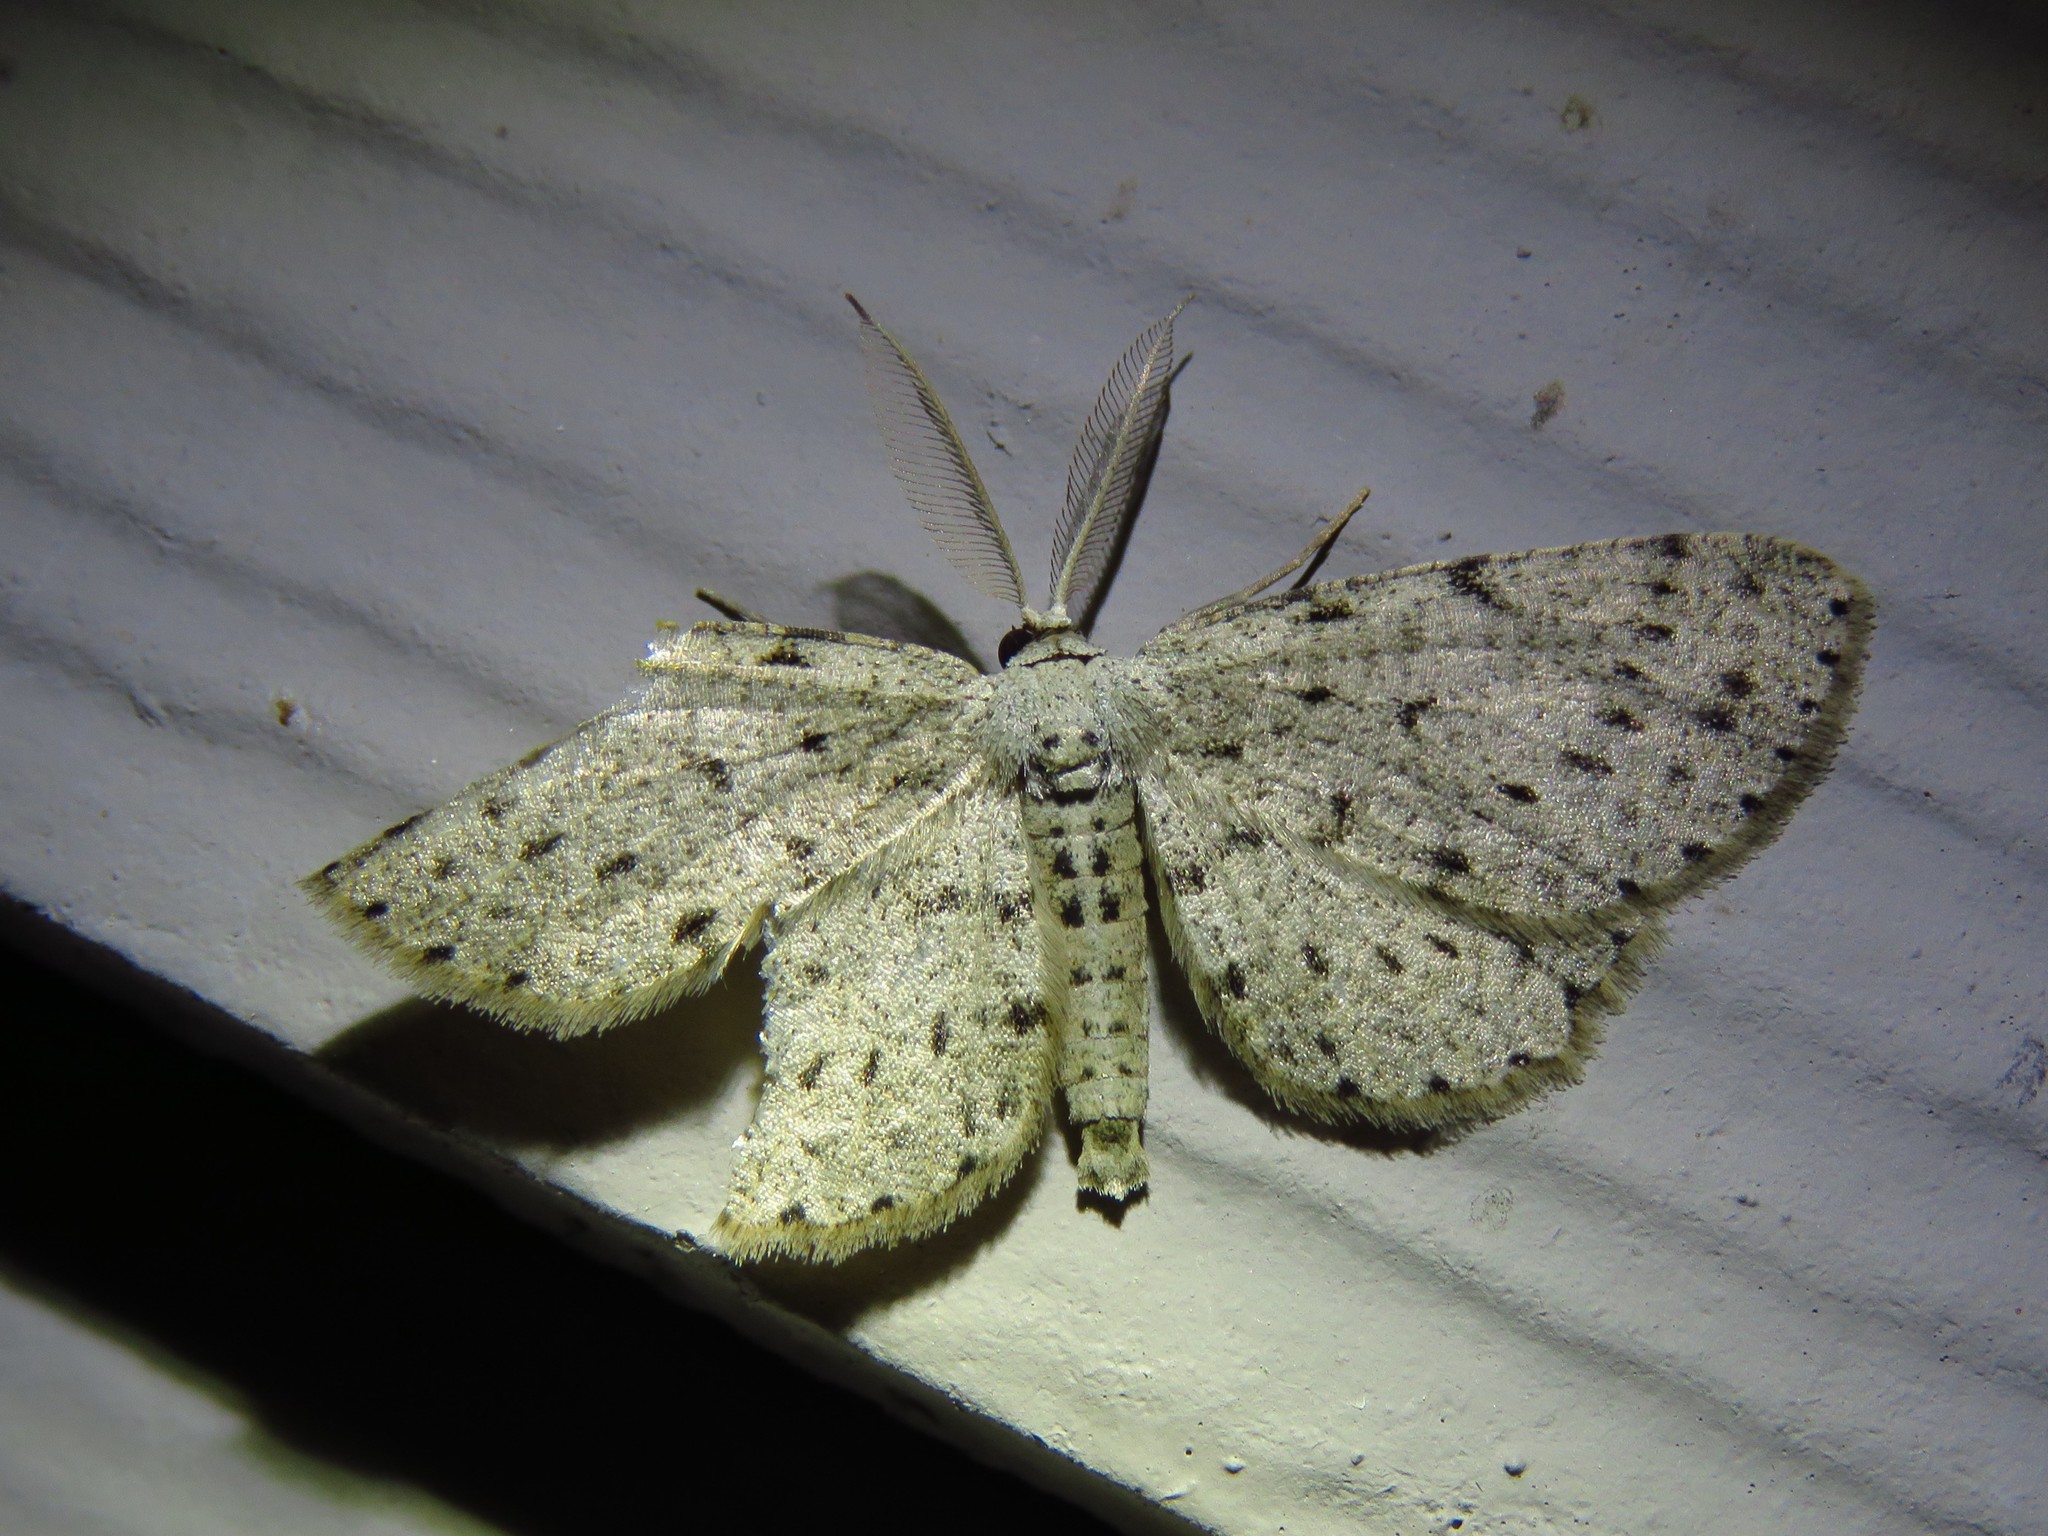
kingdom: Animalia
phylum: Arthropoda
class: Insecta
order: Lepidoptera
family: Geometridae
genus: Glena
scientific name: Glena cribrataria
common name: Dotted gray
